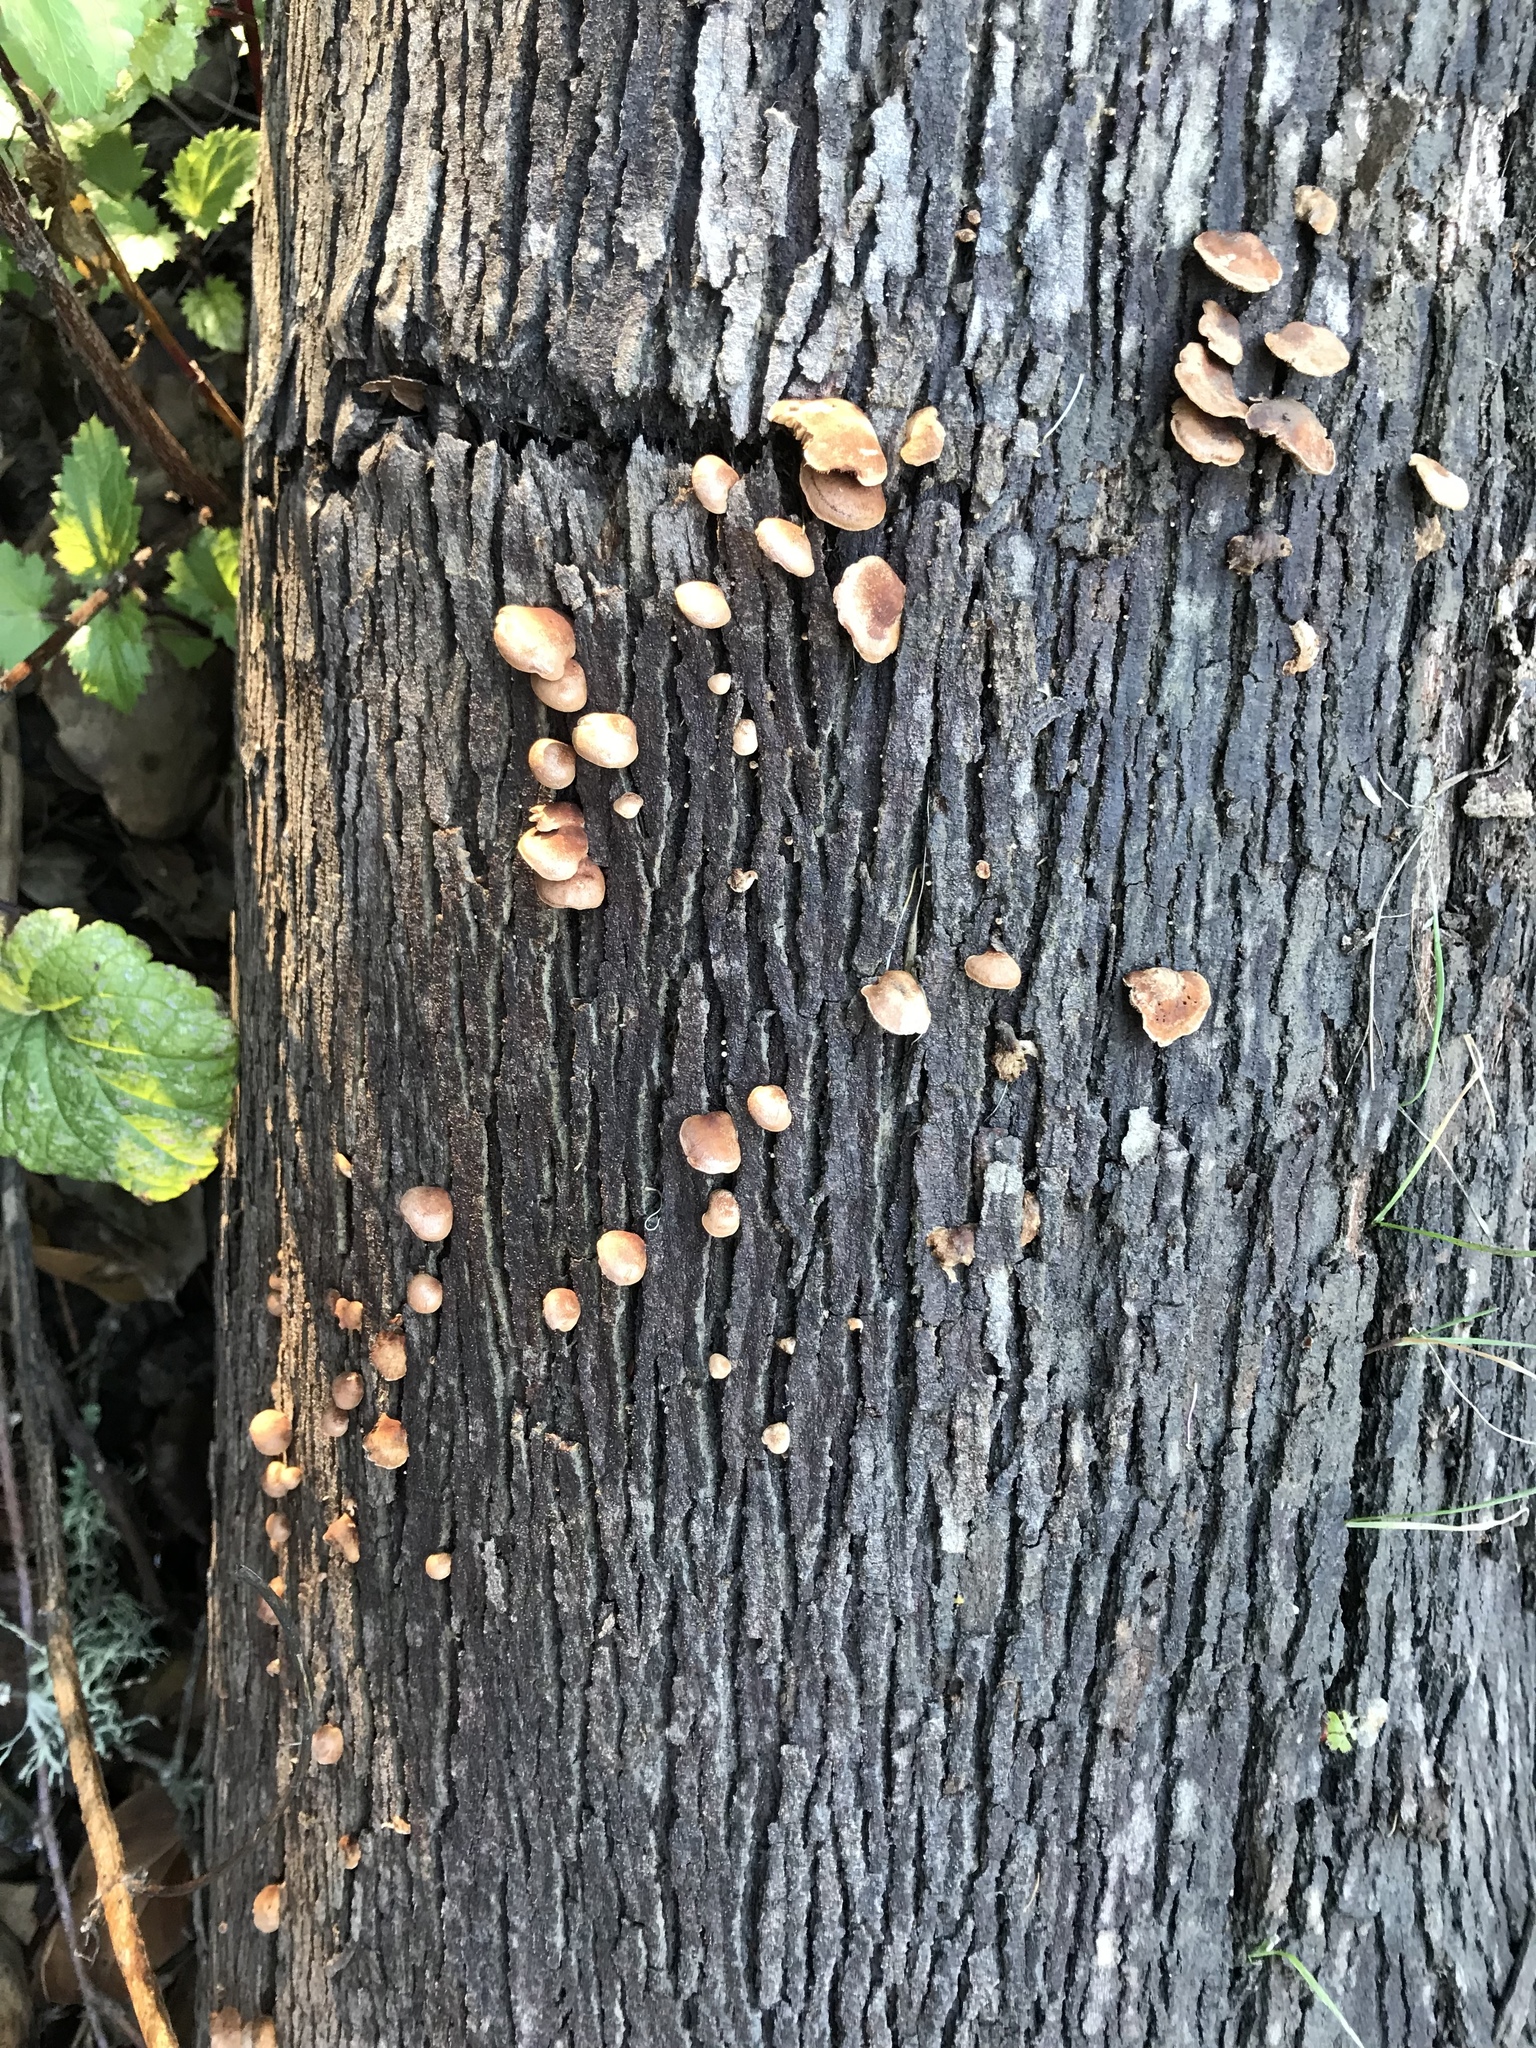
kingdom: Fungi
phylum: Basidiomycota
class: Agaricomycetes
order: Agaricales
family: Strophariaceae
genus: Deconica
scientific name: Deconica horizontalis
